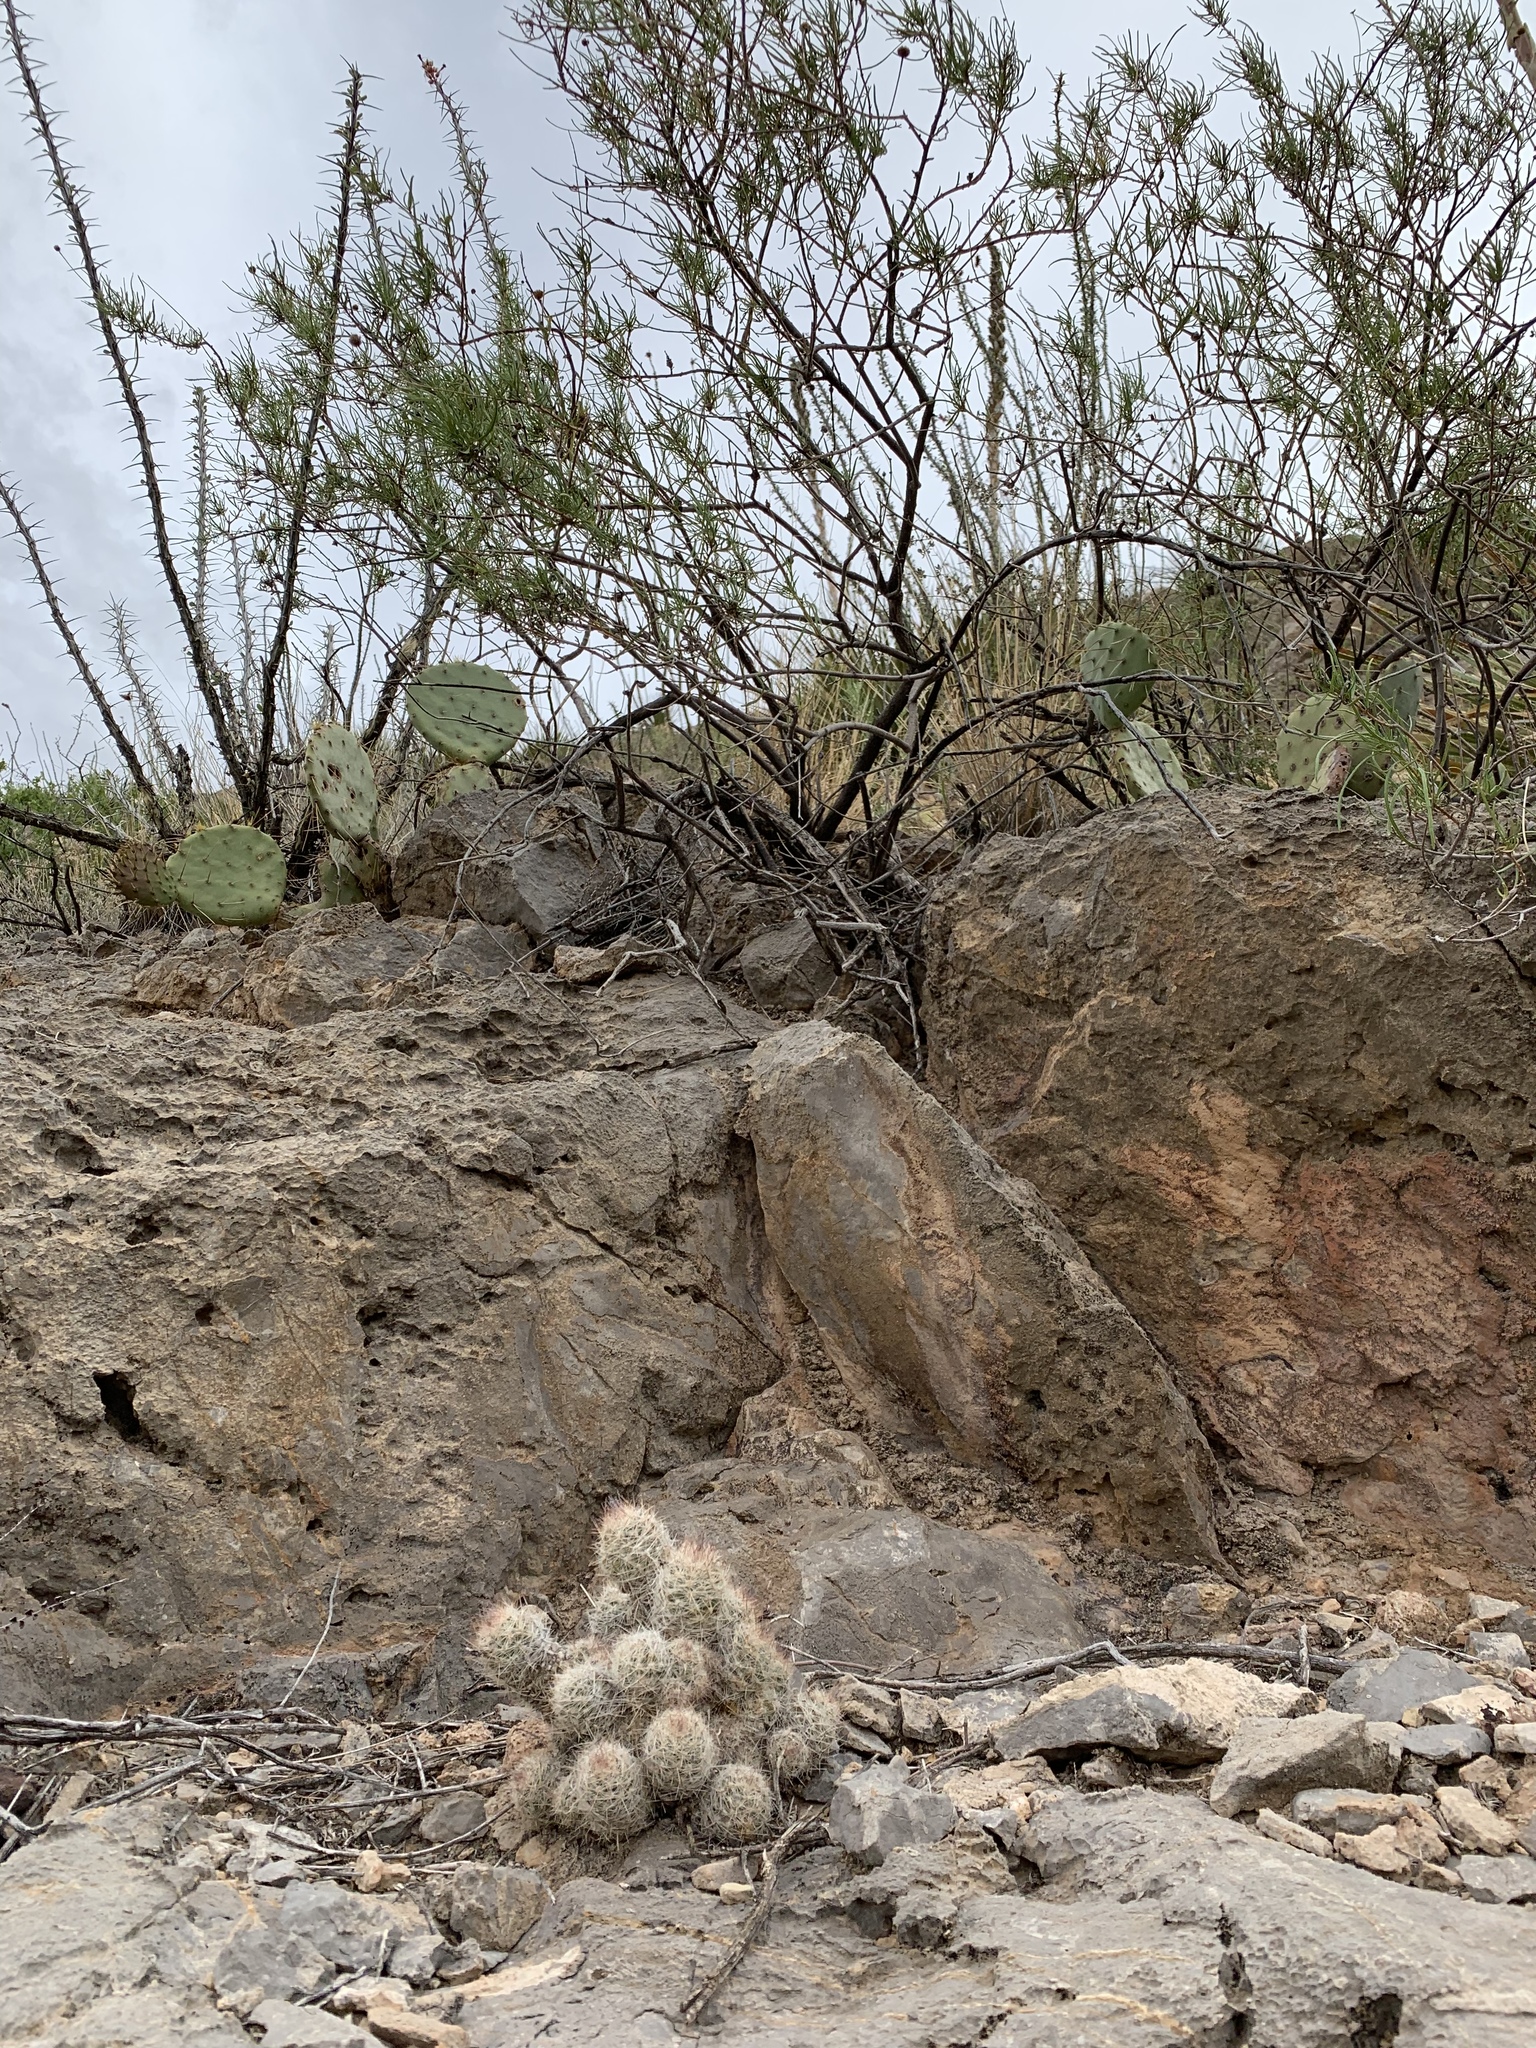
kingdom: Plantae
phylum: Tracheophyta
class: Magnoliopsida
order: Caryophyllales
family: Cactaceae
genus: Pelecyphora
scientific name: Pelecyphora tuberculosa
